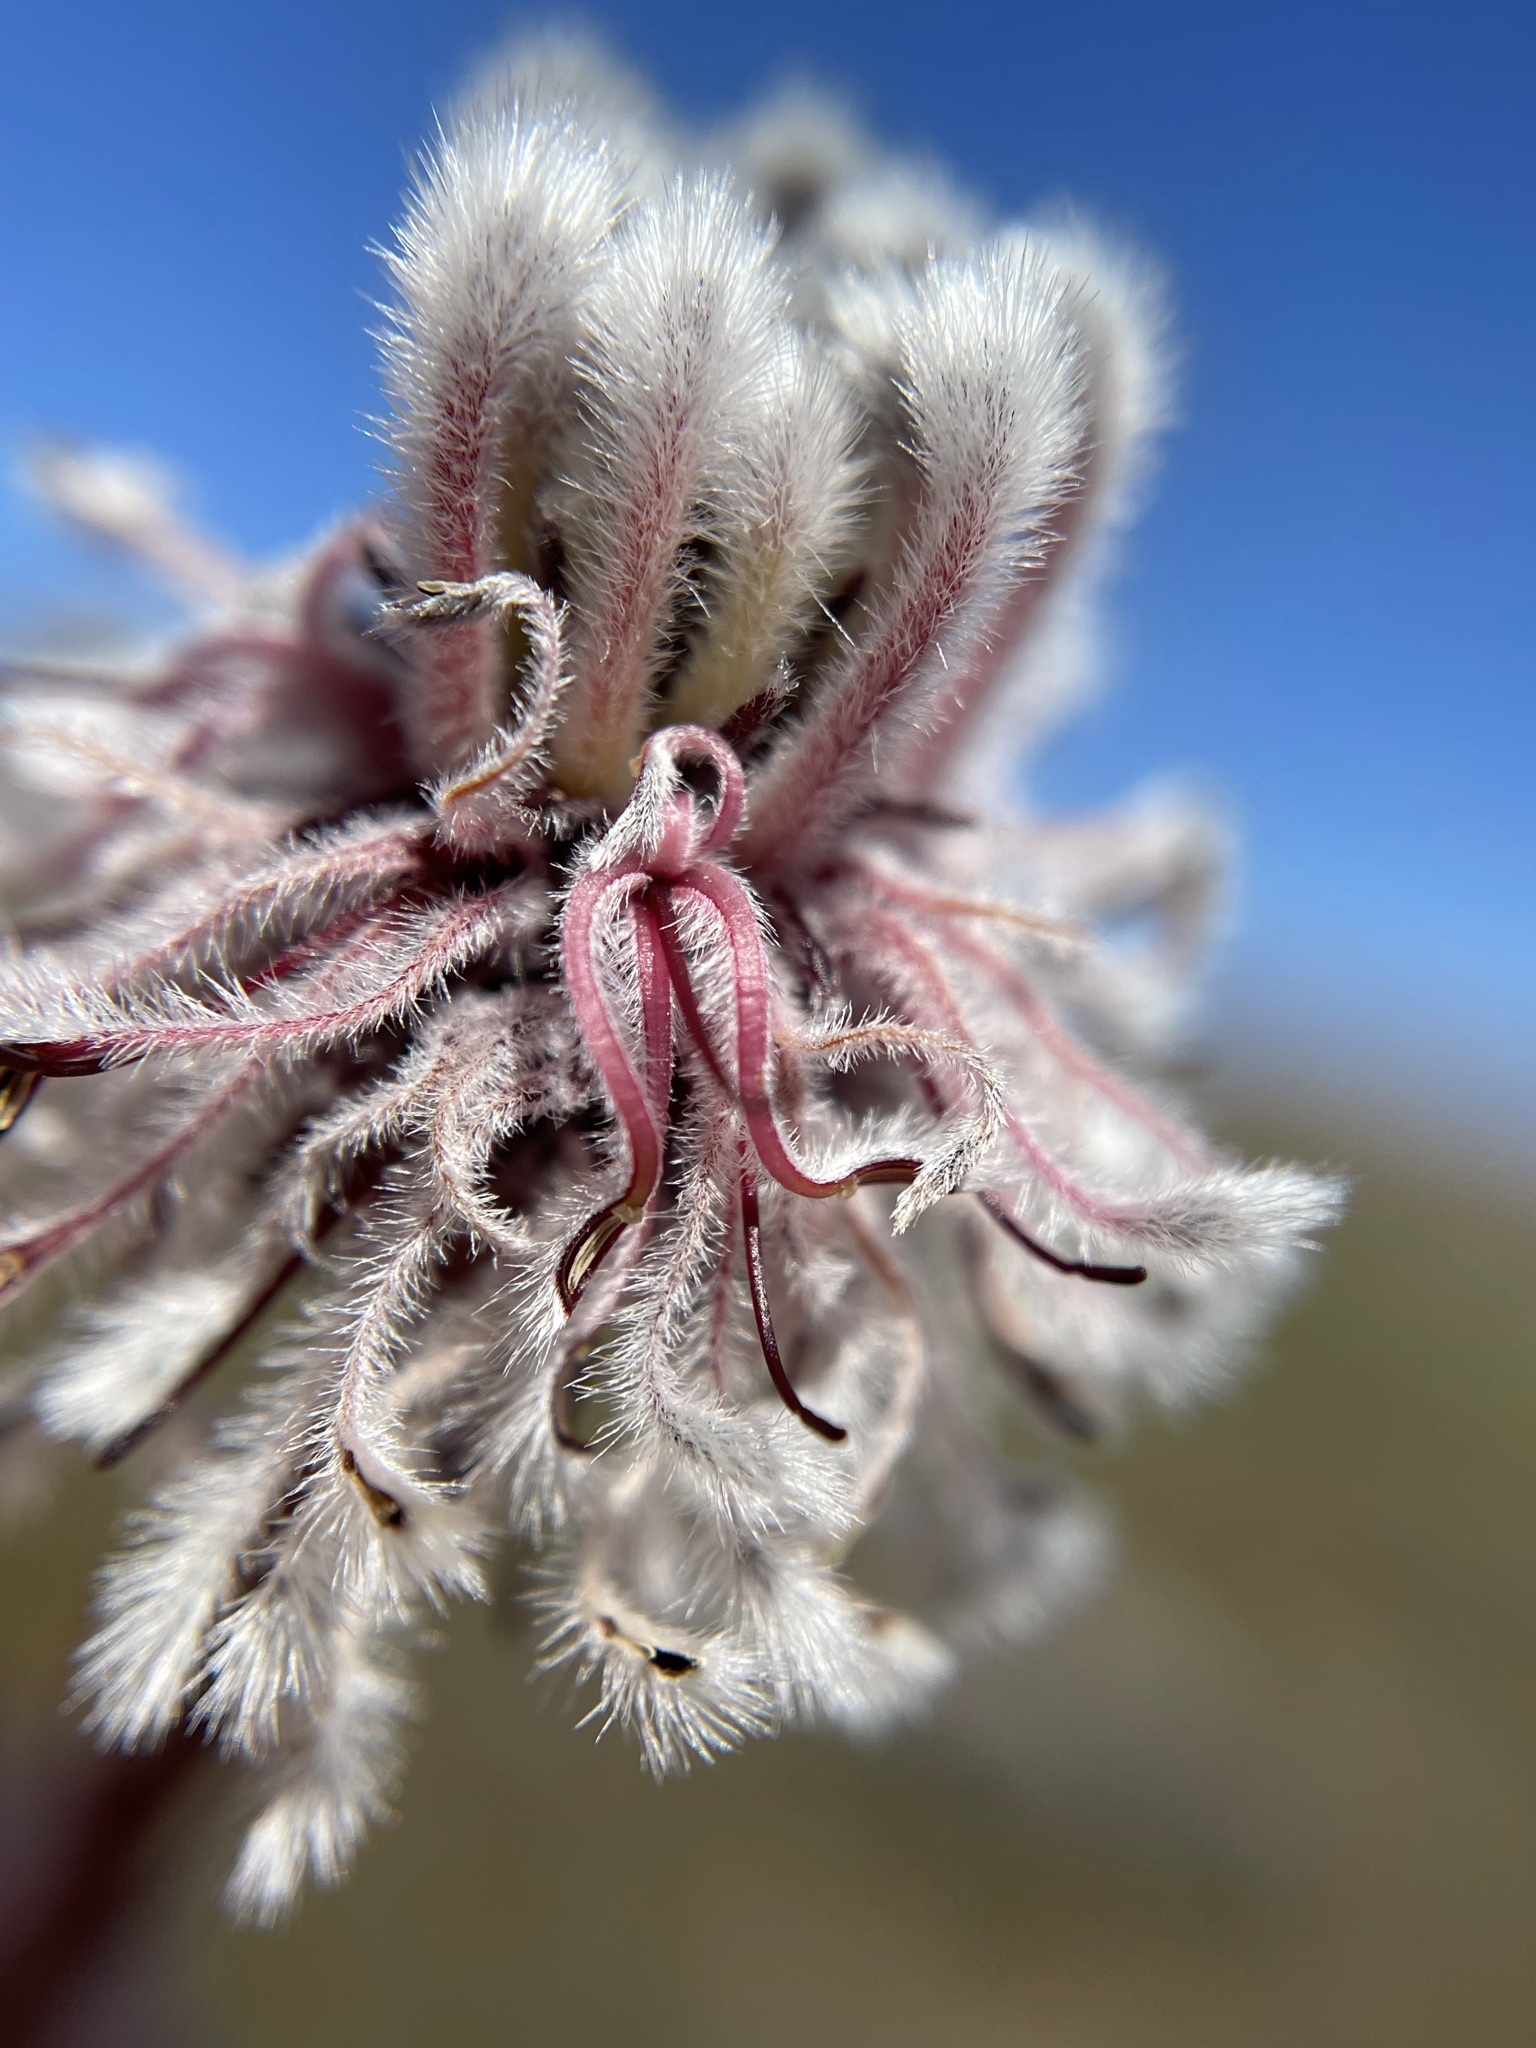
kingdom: Plantae
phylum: Tracheophyta
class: Magnoliopsida
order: Proteales
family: Proteaceae
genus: Serruria
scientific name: Serruria aitonii
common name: Marshmallow spiderhead
